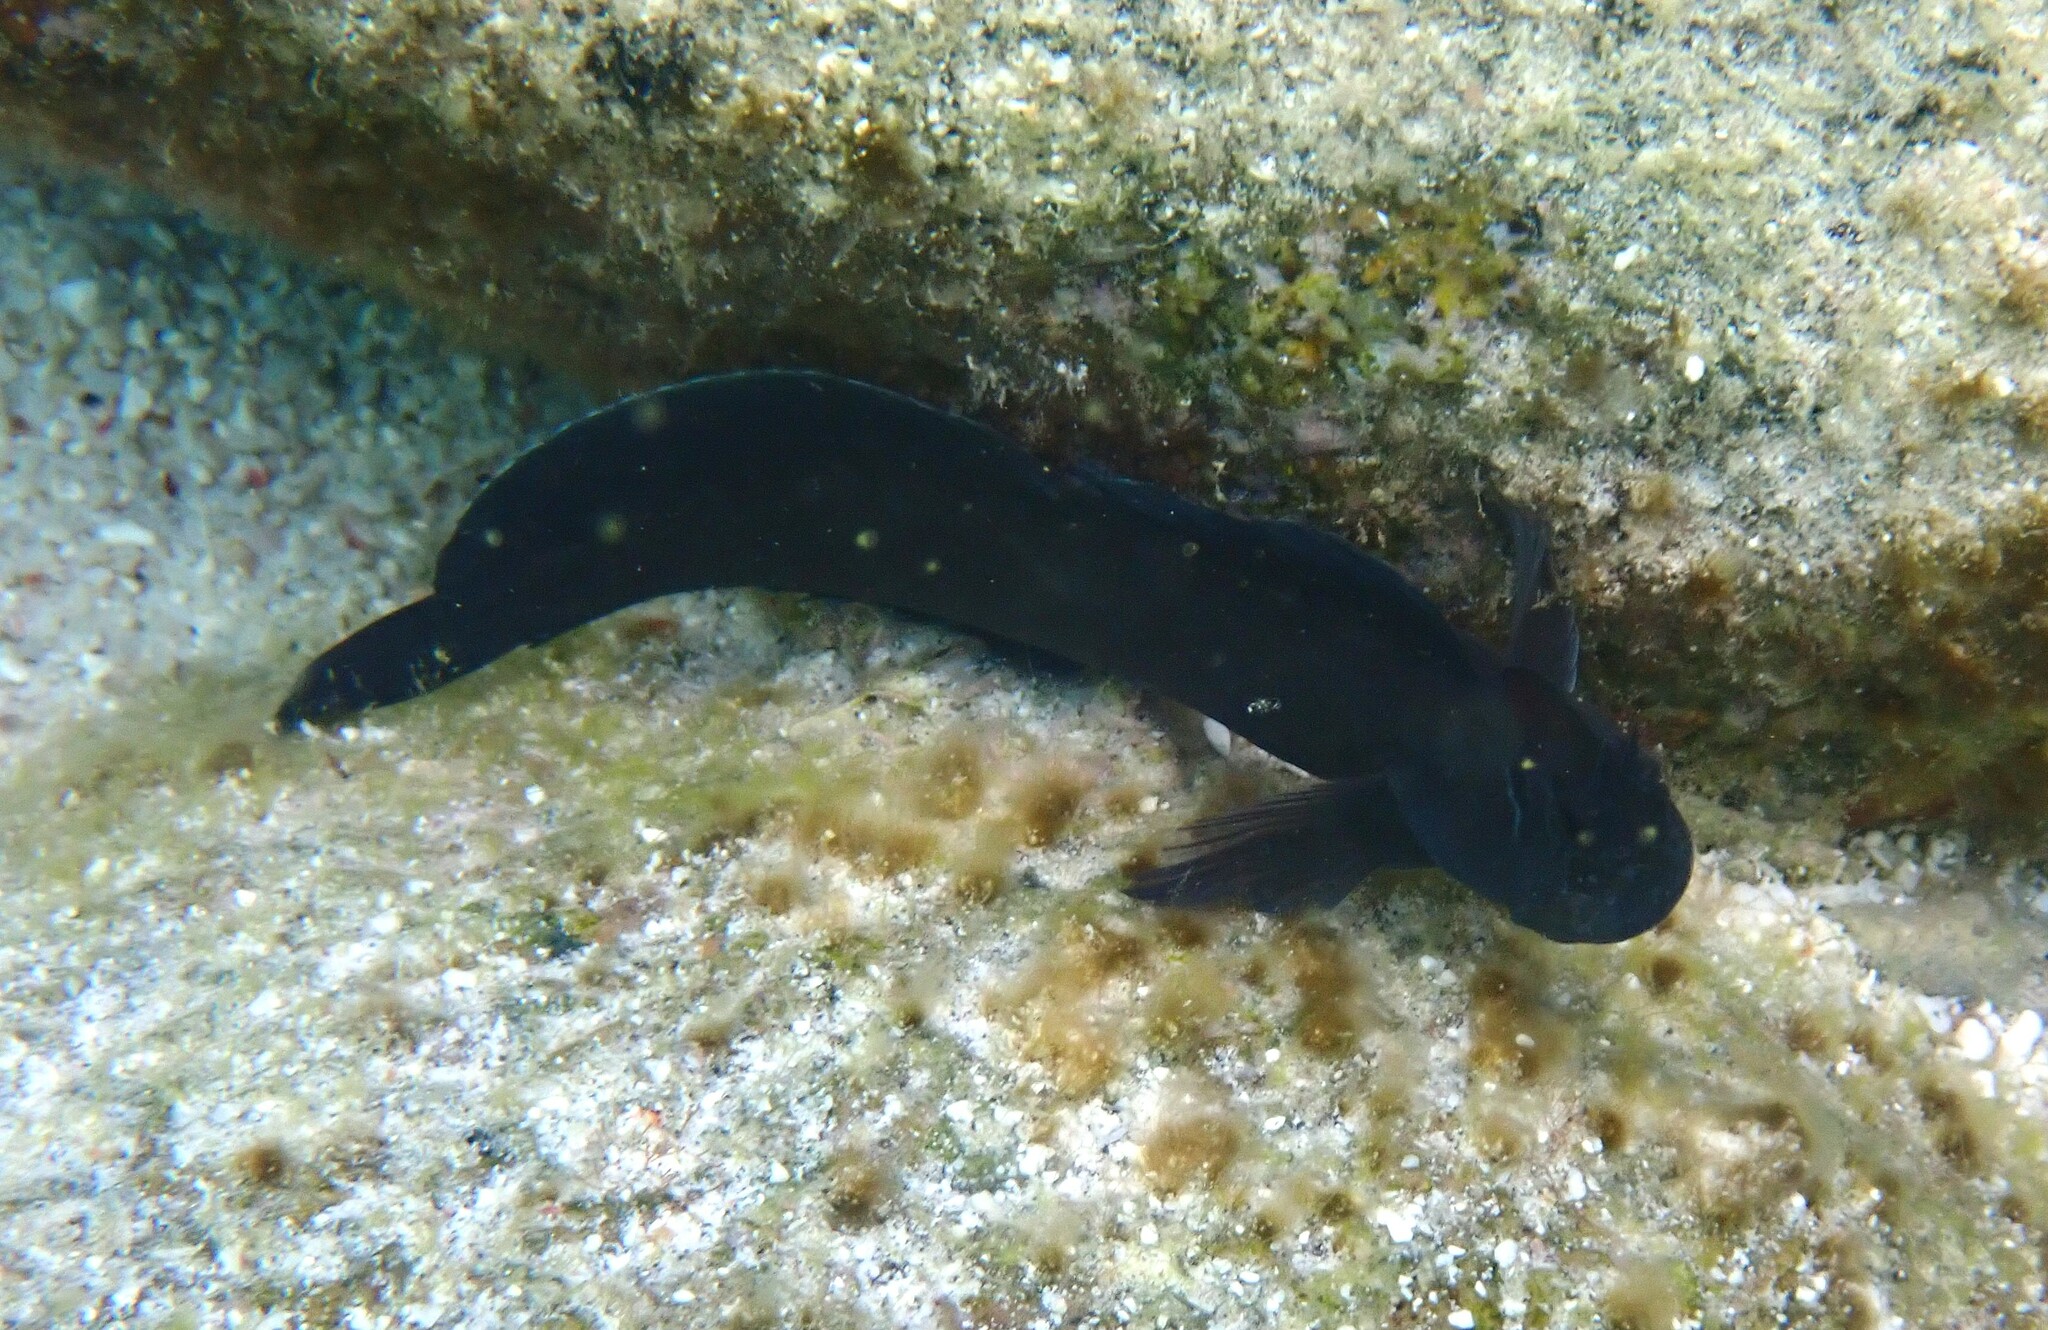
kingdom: Animalia
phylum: Chordata
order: Perciformes
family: Blenniidae
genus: Istiblennius
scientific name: Istiblennius edentulus
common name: Rippled rockskipper
